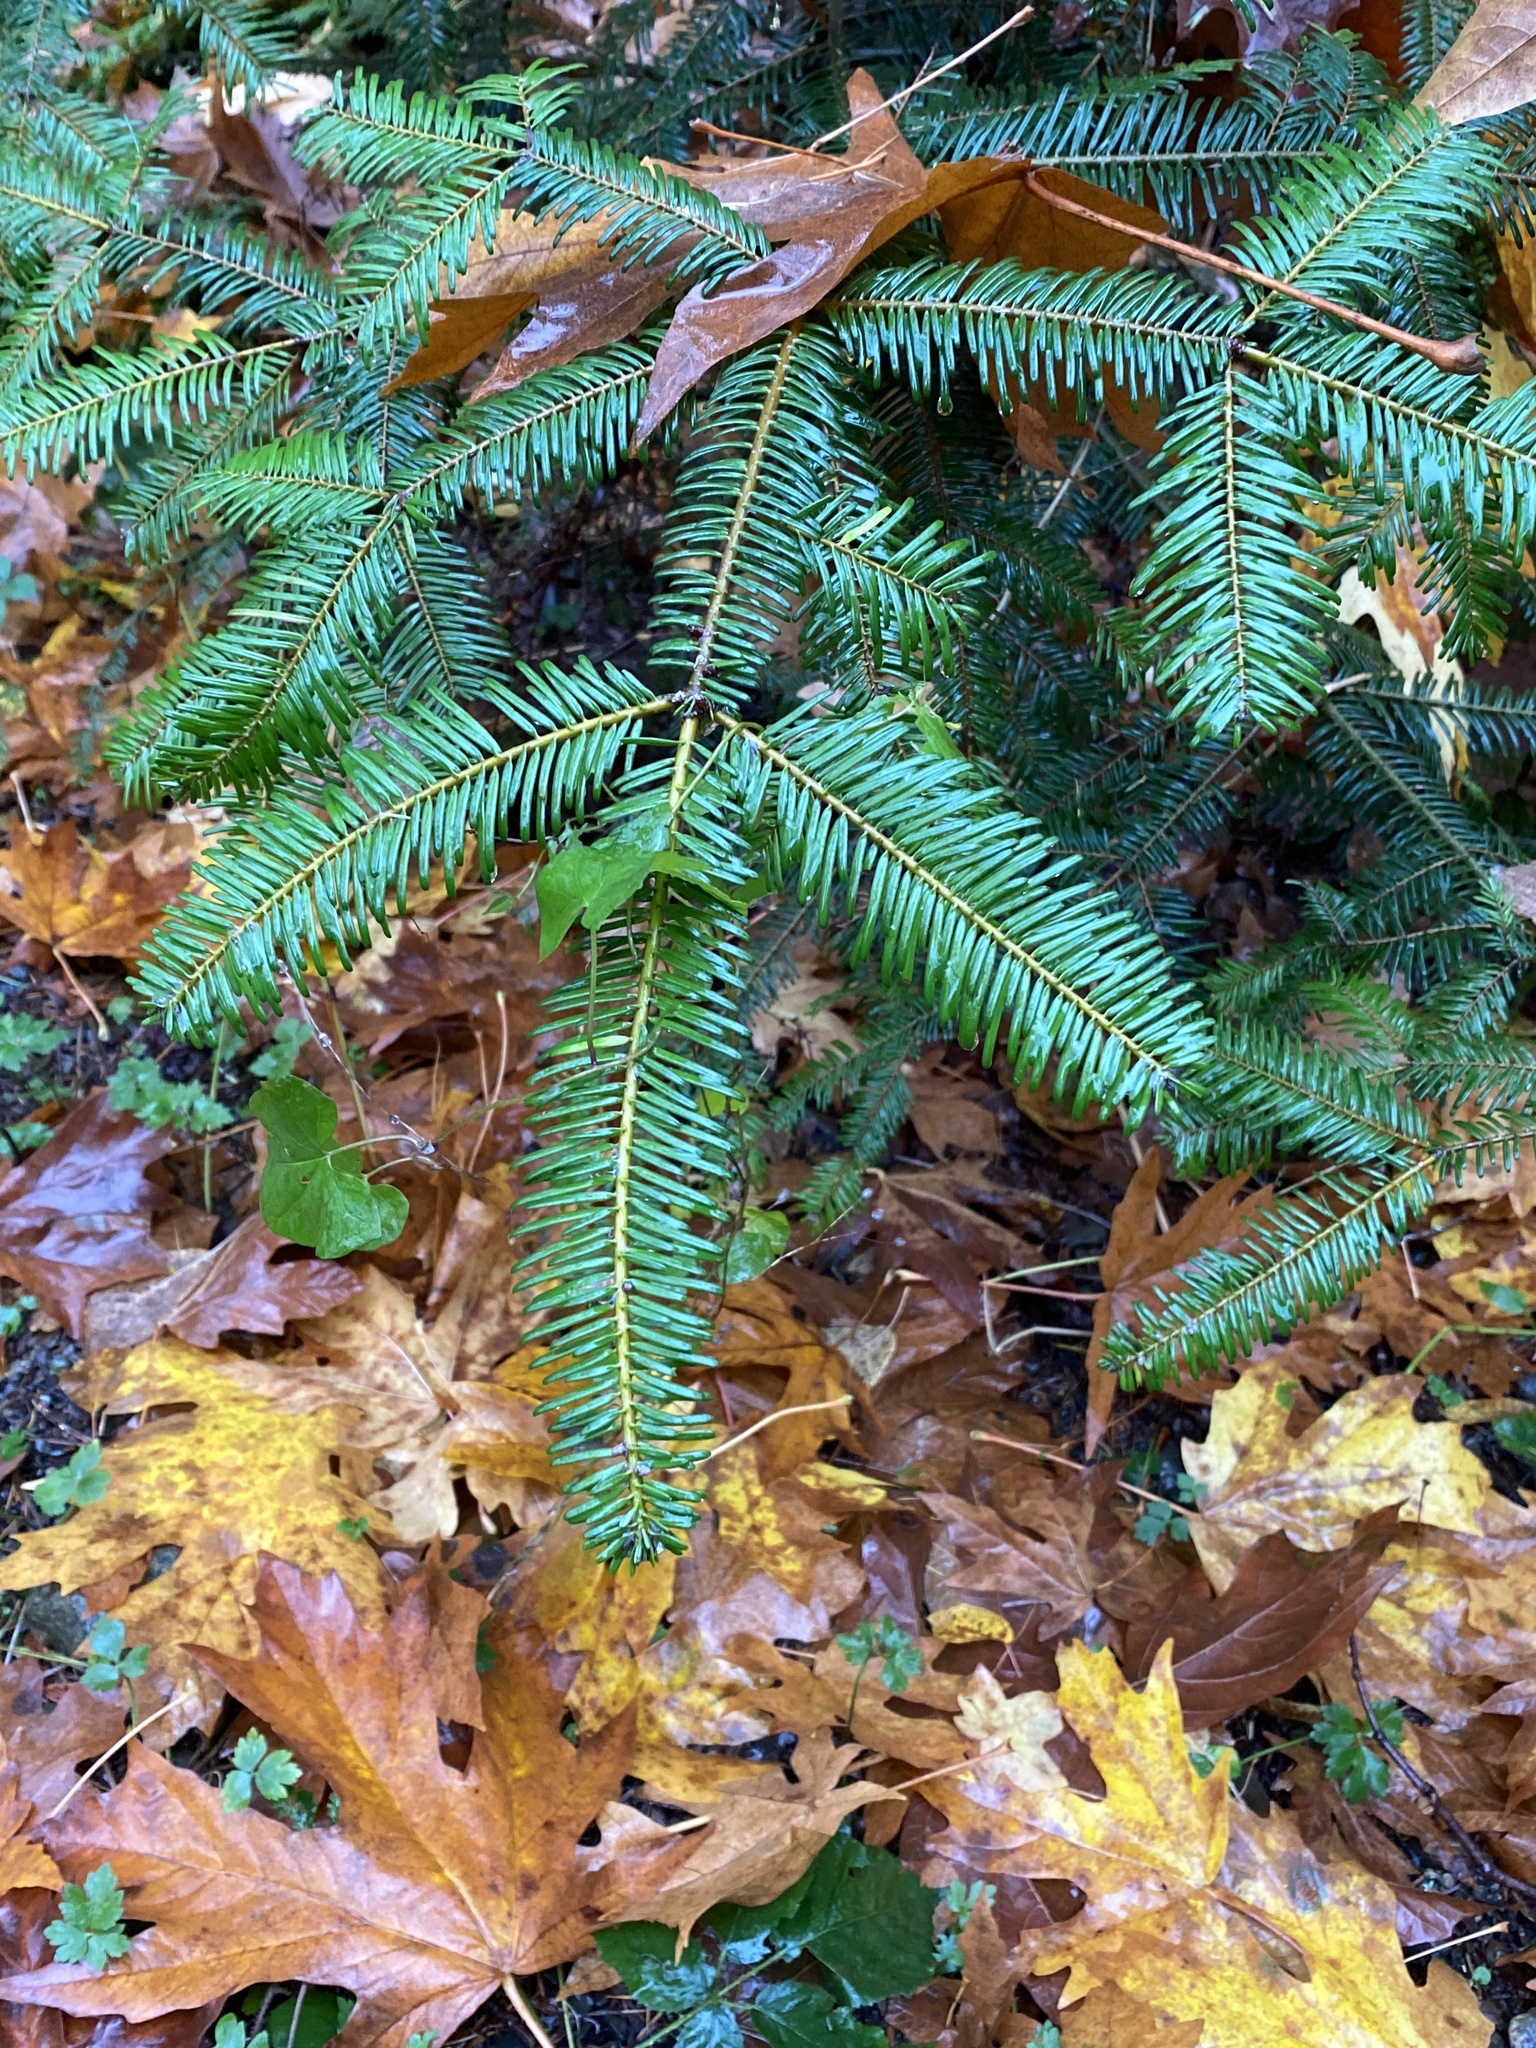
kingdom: Plantae
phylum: Tracheophyta
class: Pinopsida
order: Pinales
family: Pinaceae
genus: Abies
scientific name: Abies grandis
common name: Giant fir
